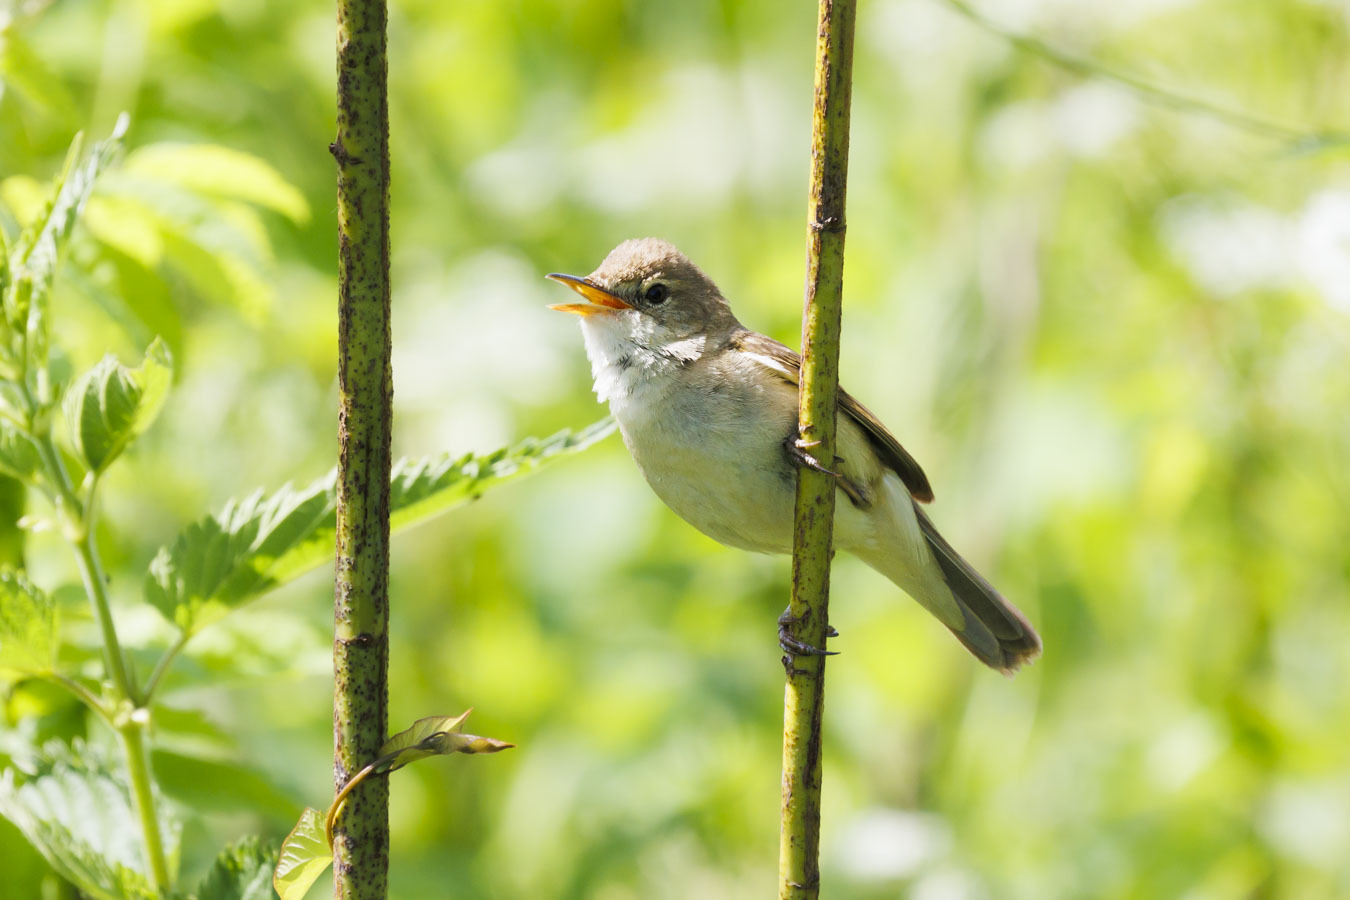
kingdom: Animalia
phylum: Chordata
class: Aves
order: Passeriformes
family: Acrocephalidae
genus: Acrocephalus
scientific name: Acrocephalus dumetorum
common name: Blyth's reed warbler
